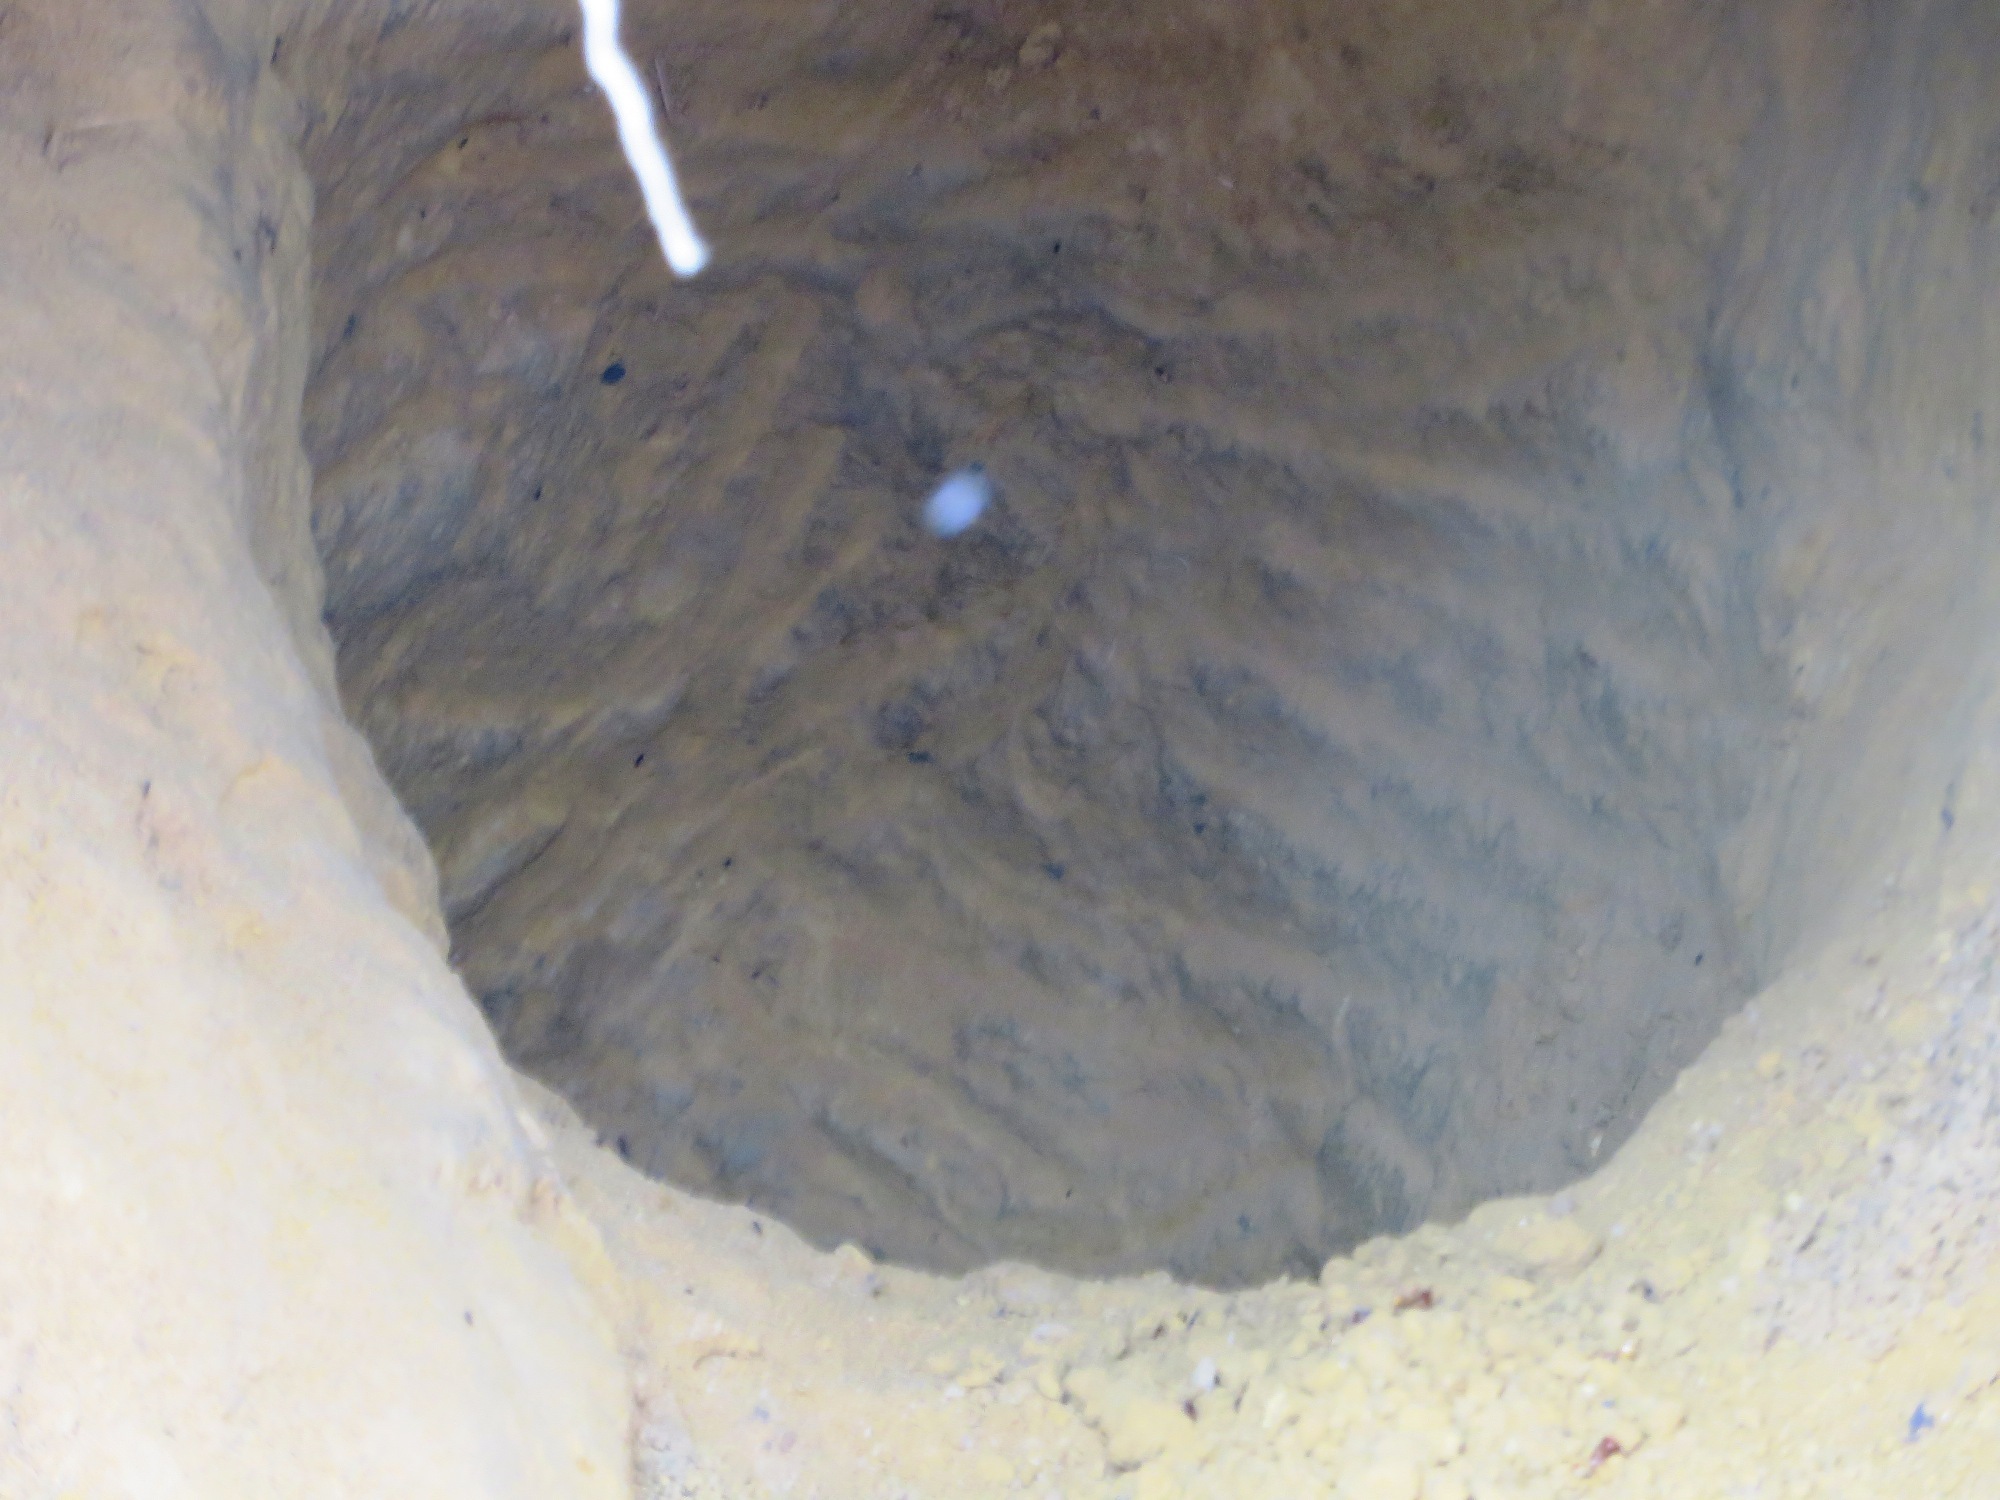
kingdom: Animalia
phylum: Chordata
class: Mammalia
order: Tubulidentata
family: Orycteropodidae
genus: Orycteropus
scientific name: Orycteropus afer
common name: Aardvark
